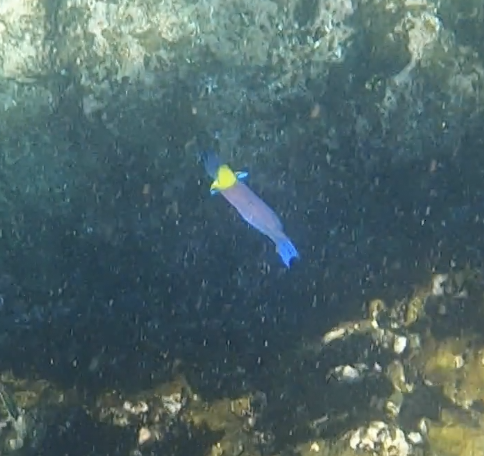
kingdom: Animalia
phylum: Chordata
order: Perciformes
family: Labridae
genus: Thalassoma
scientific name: Thalassoma lucasanum
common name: Cortez rainbow wrasse
